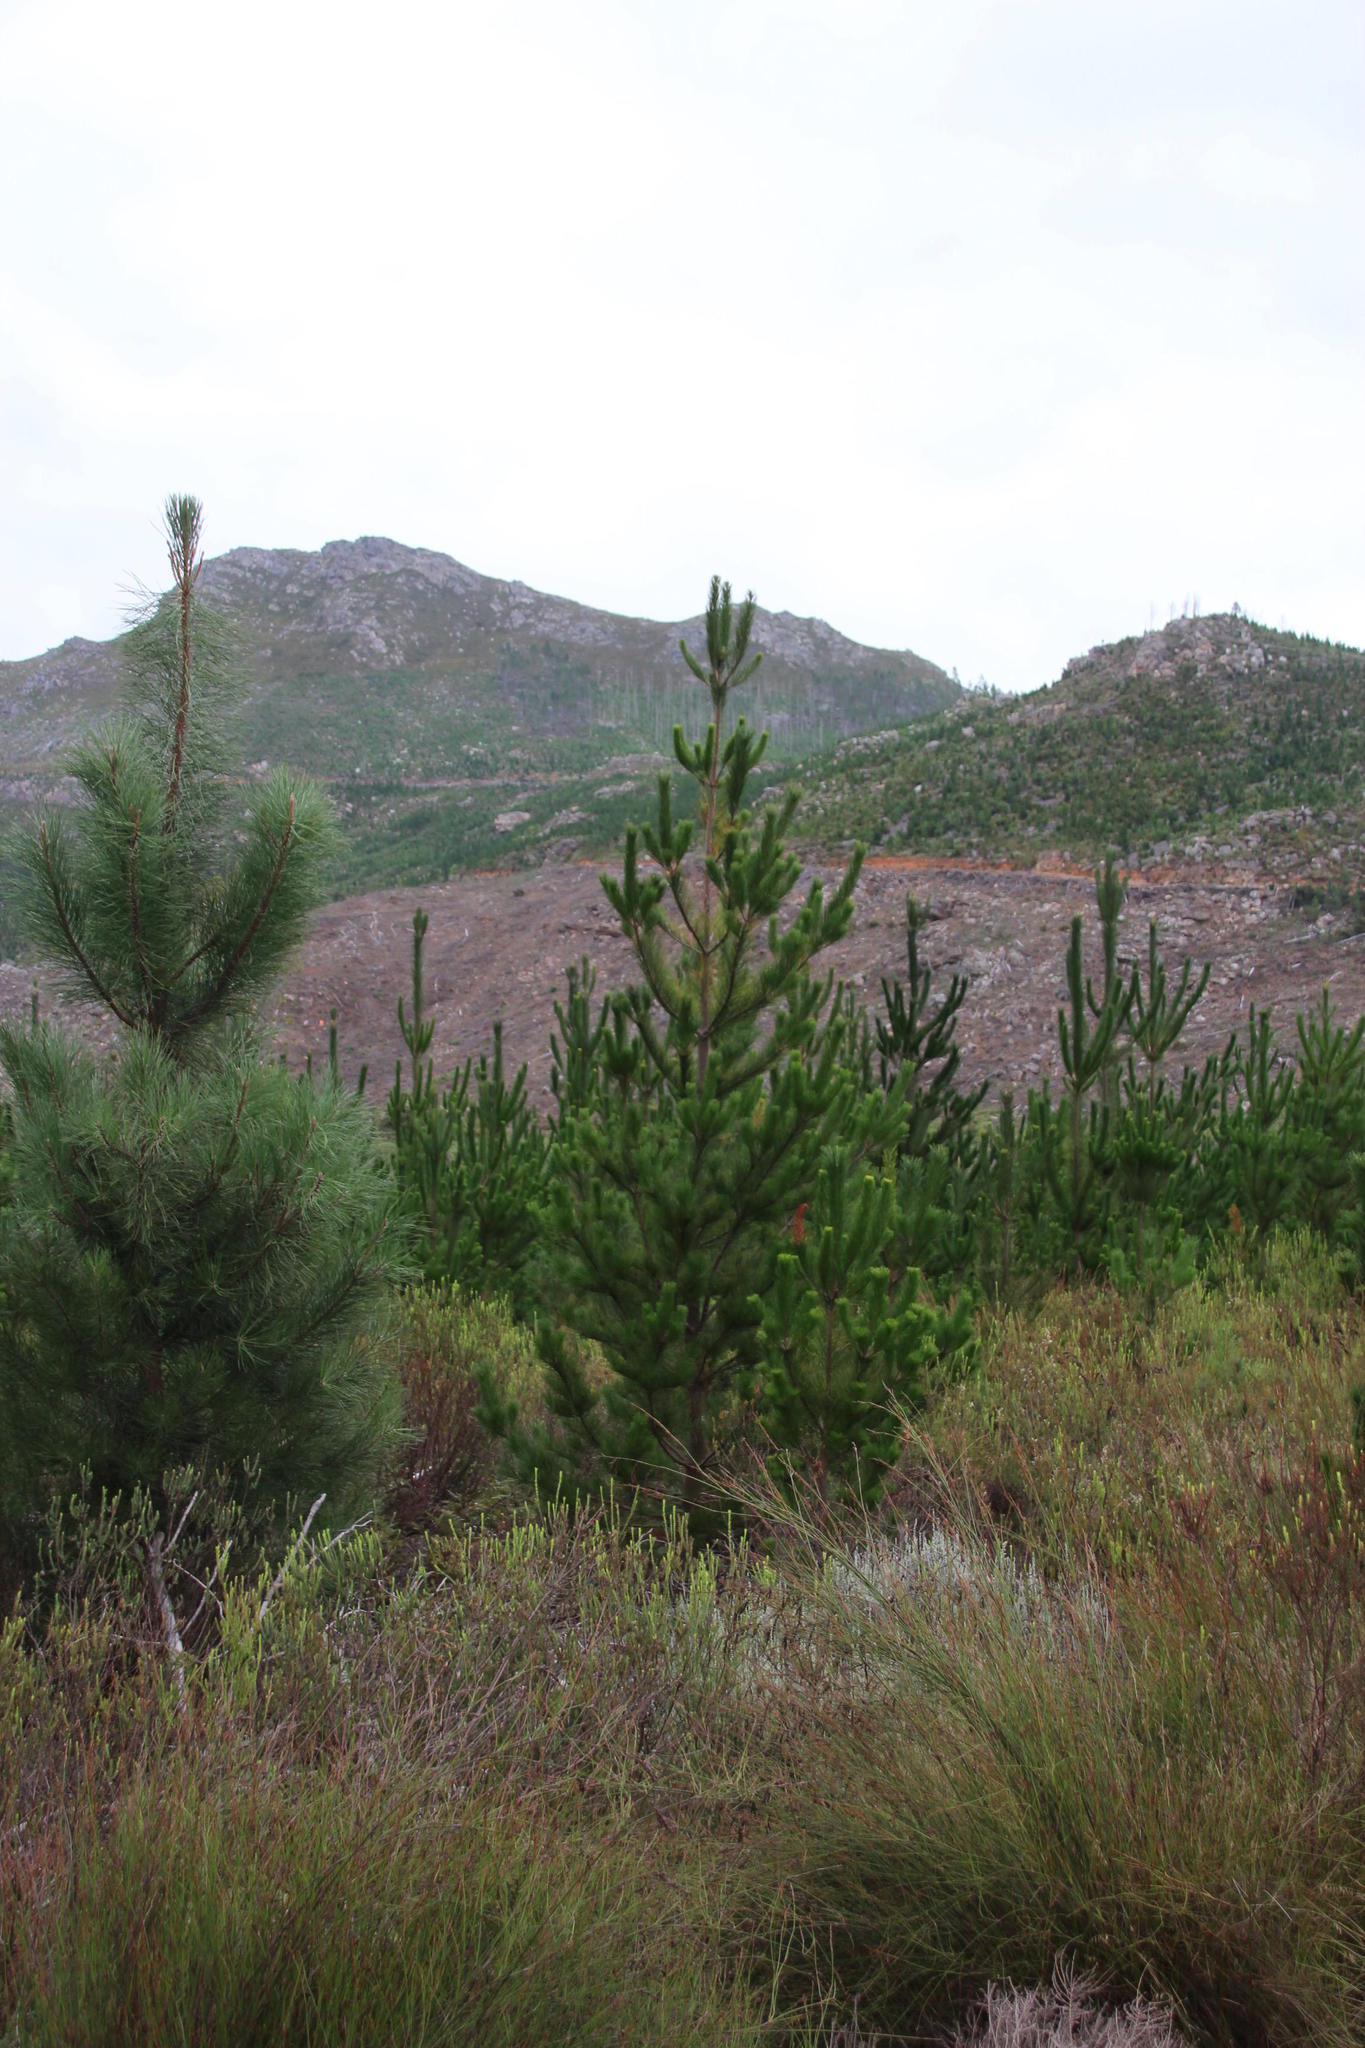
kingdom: Plantae
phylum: Tracheophyta
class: Pinopsida
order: Pinales
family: Pinaceae
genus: Pinus
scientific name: Pinus radiata
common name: Monterey pine
